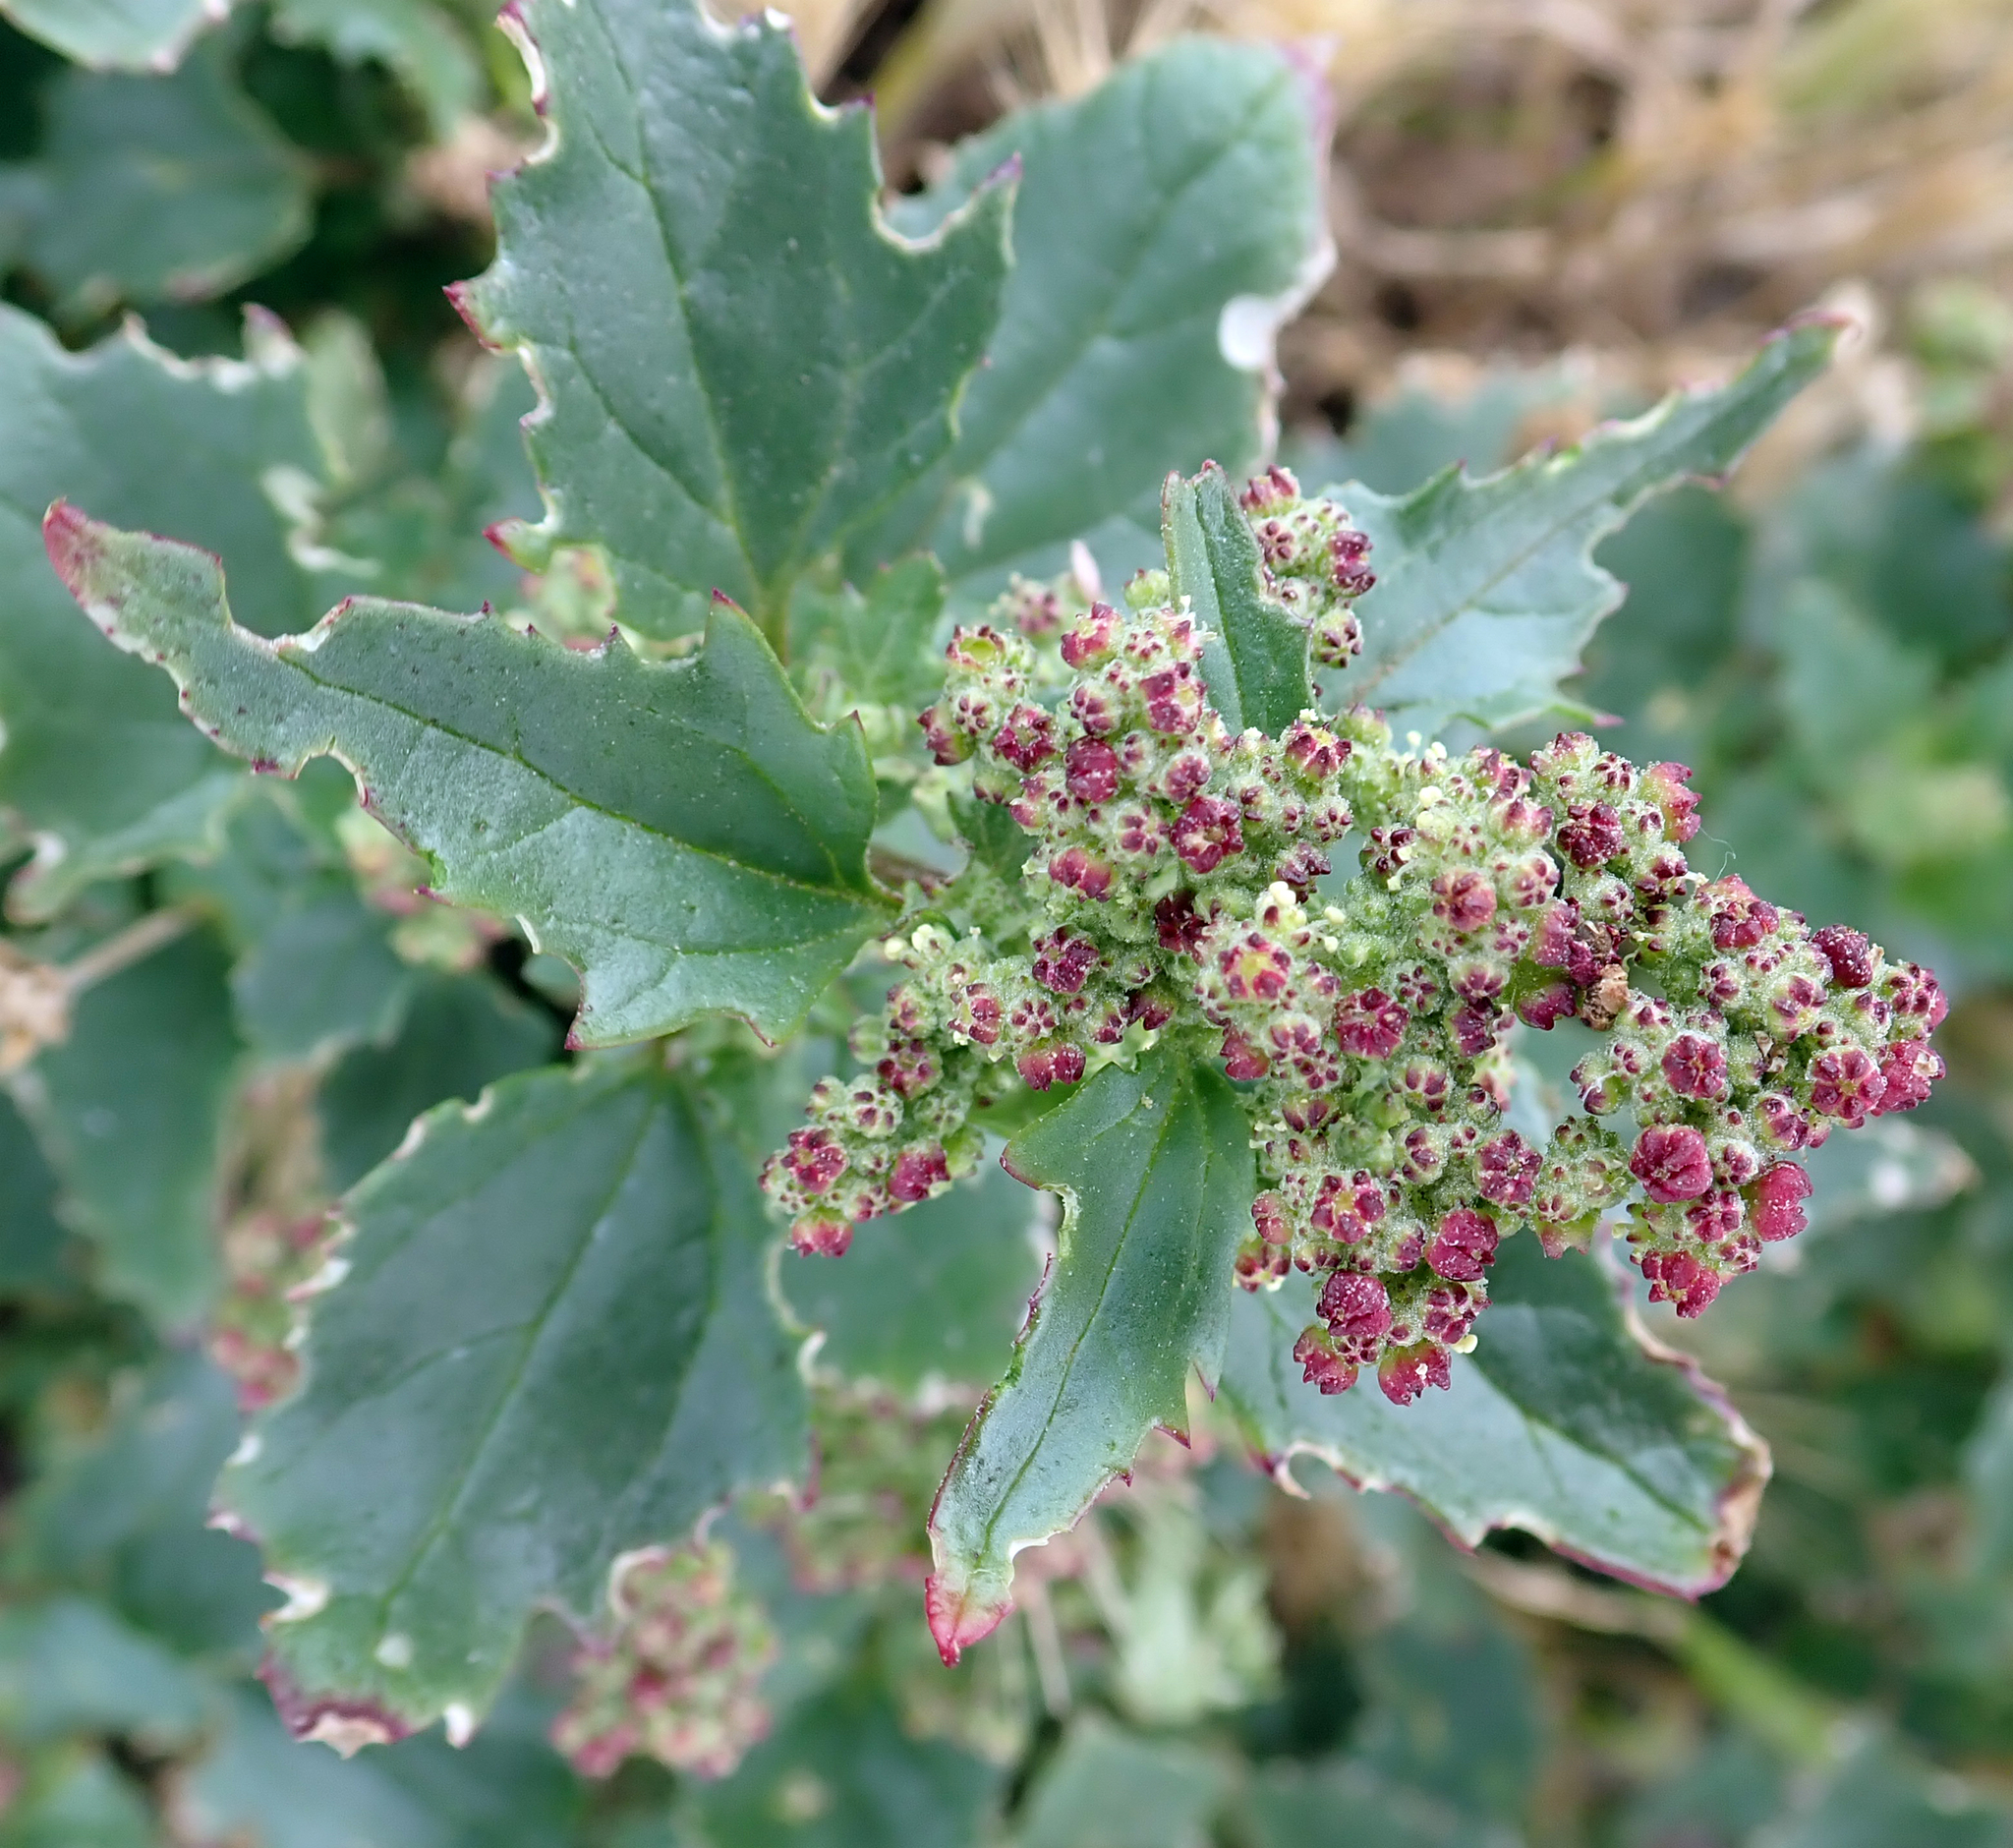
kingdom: Plantae
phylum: Tracheophyta
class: Magnoliopsida
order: Caryophyllales
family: Amaranthaceae
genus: Chenopodiastrum
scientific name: Chenopodiastrum murale
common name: Sowbane
